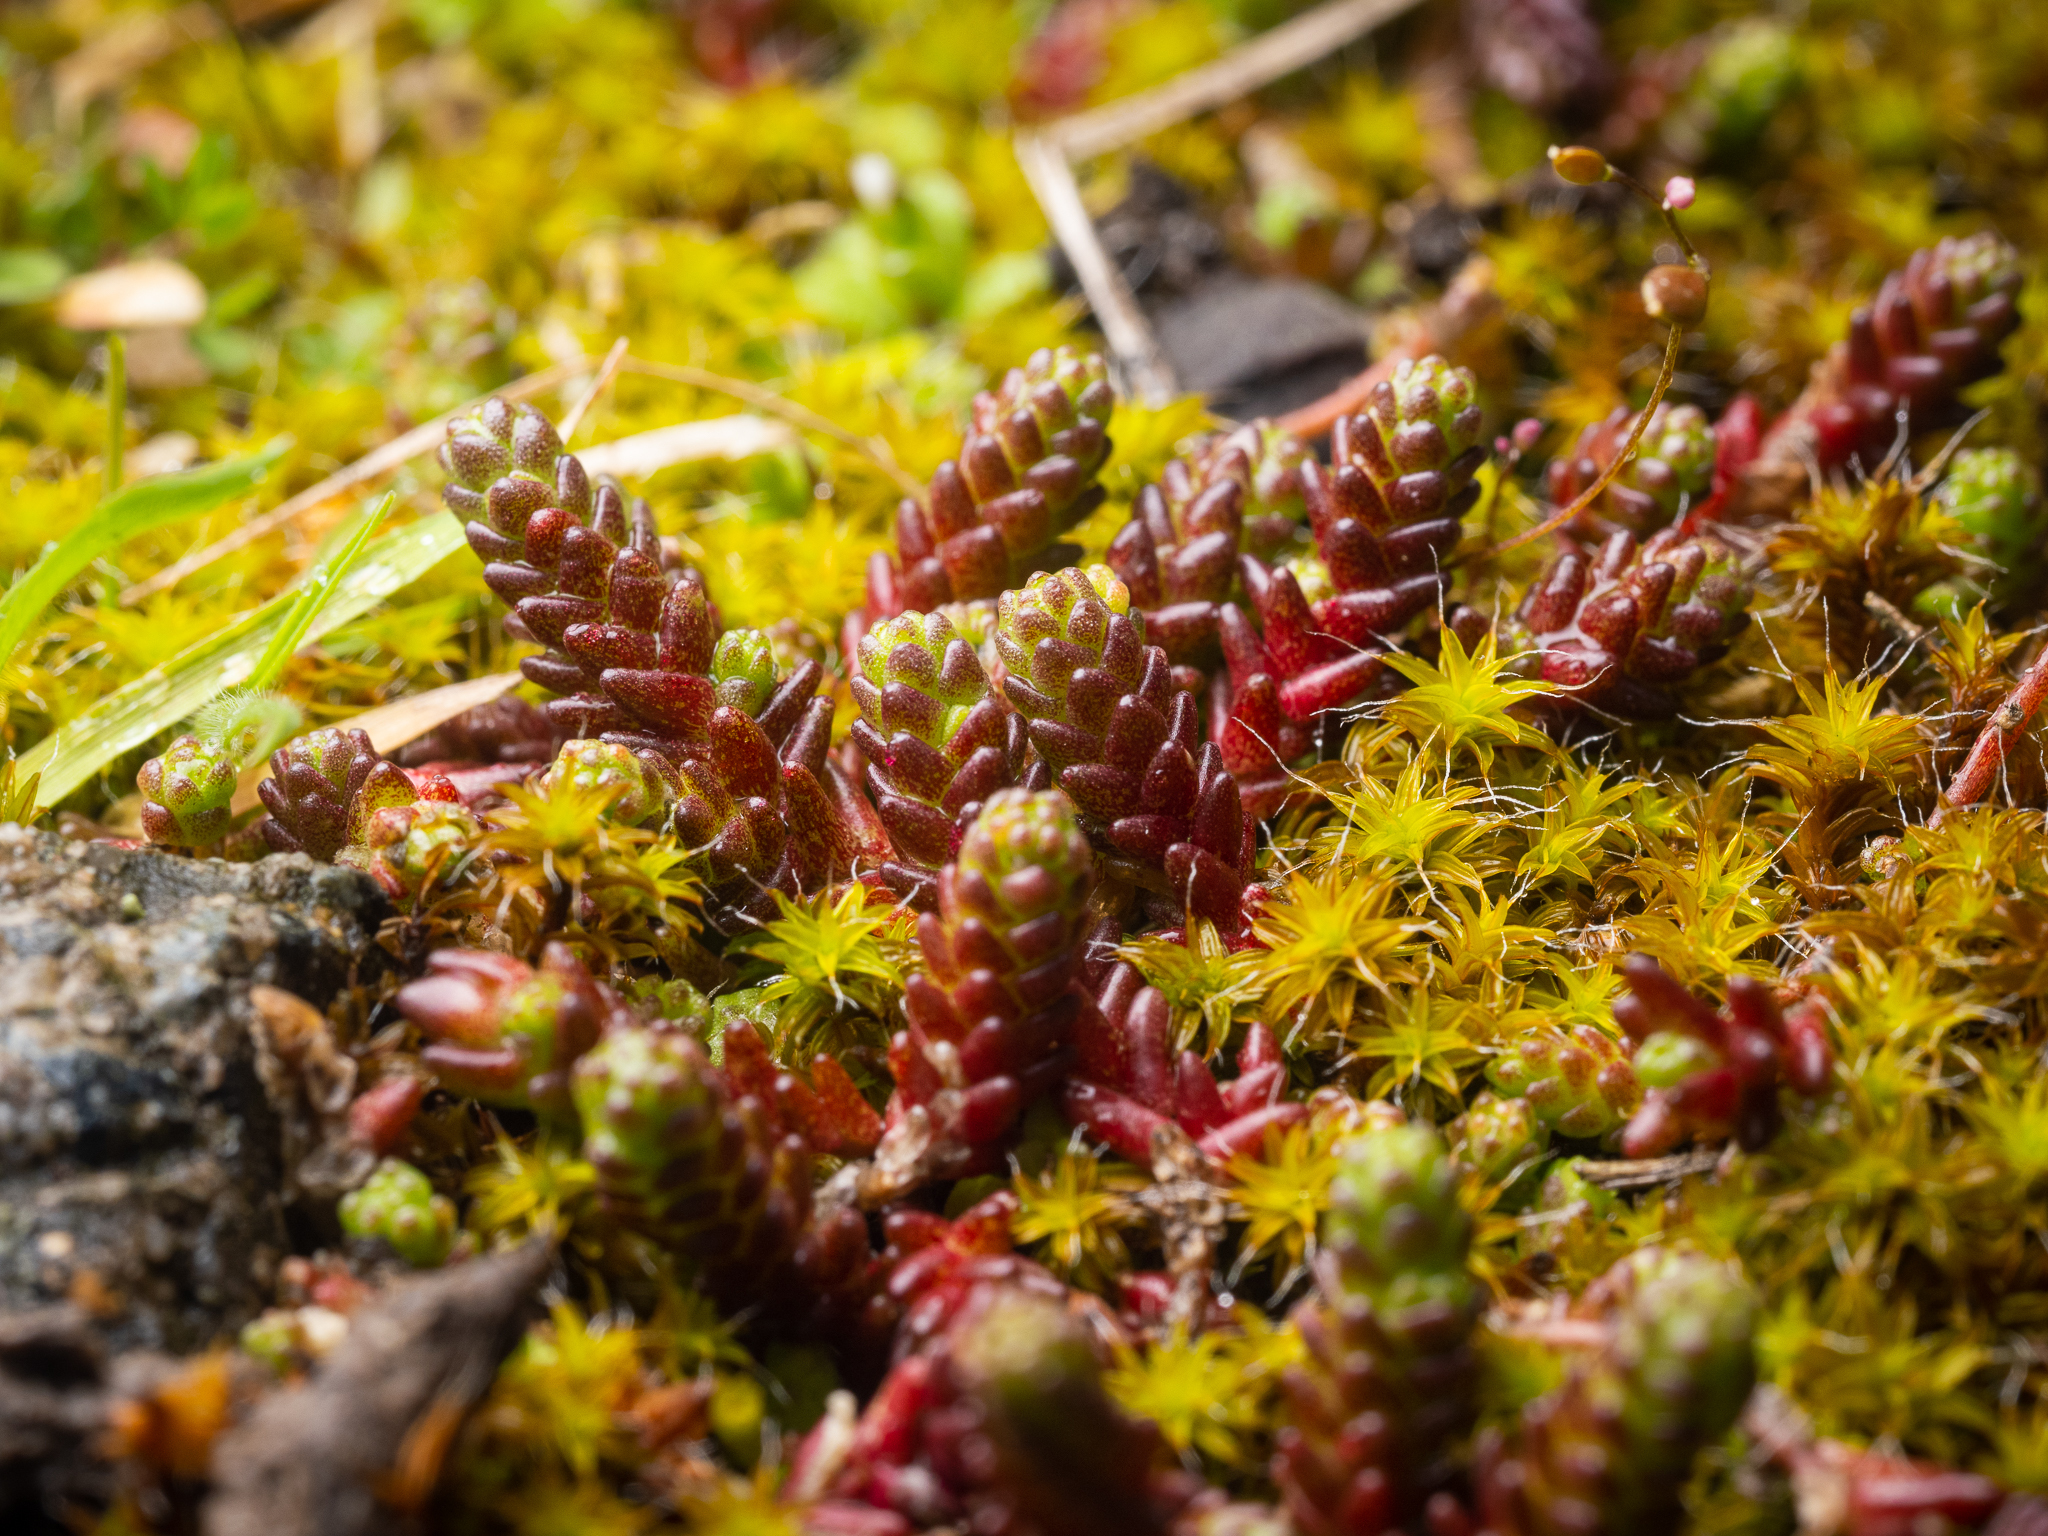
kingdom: Plantae
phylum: Tracheophyta
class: Magnoliopsida
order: Saxifragales
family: Crassulaceae
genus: Sedum
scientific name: Sedum acre
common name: Biting stonecrop
